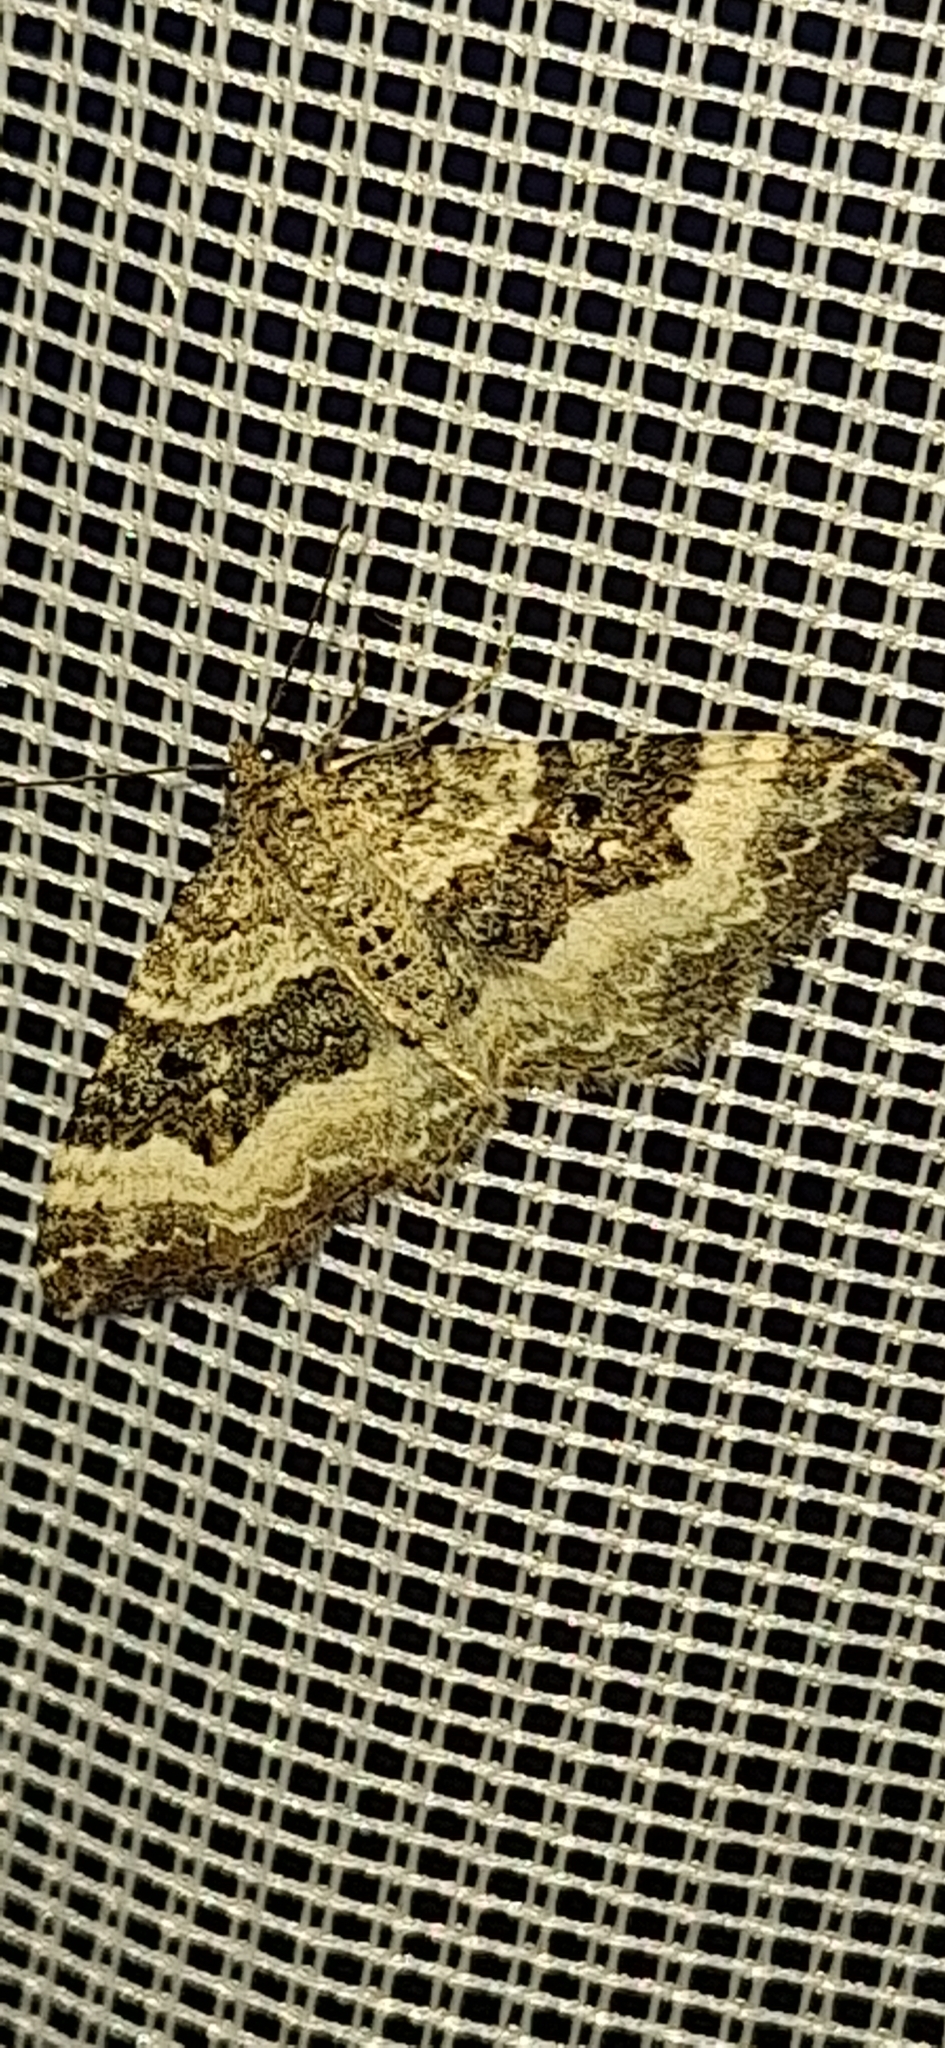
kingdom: Animalia
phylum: Arthropoda
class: Insecta
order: Lepidoptera
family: Geometridae
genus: Epirrhoe
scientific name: Epirrhoe alternata
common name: Common carpet
